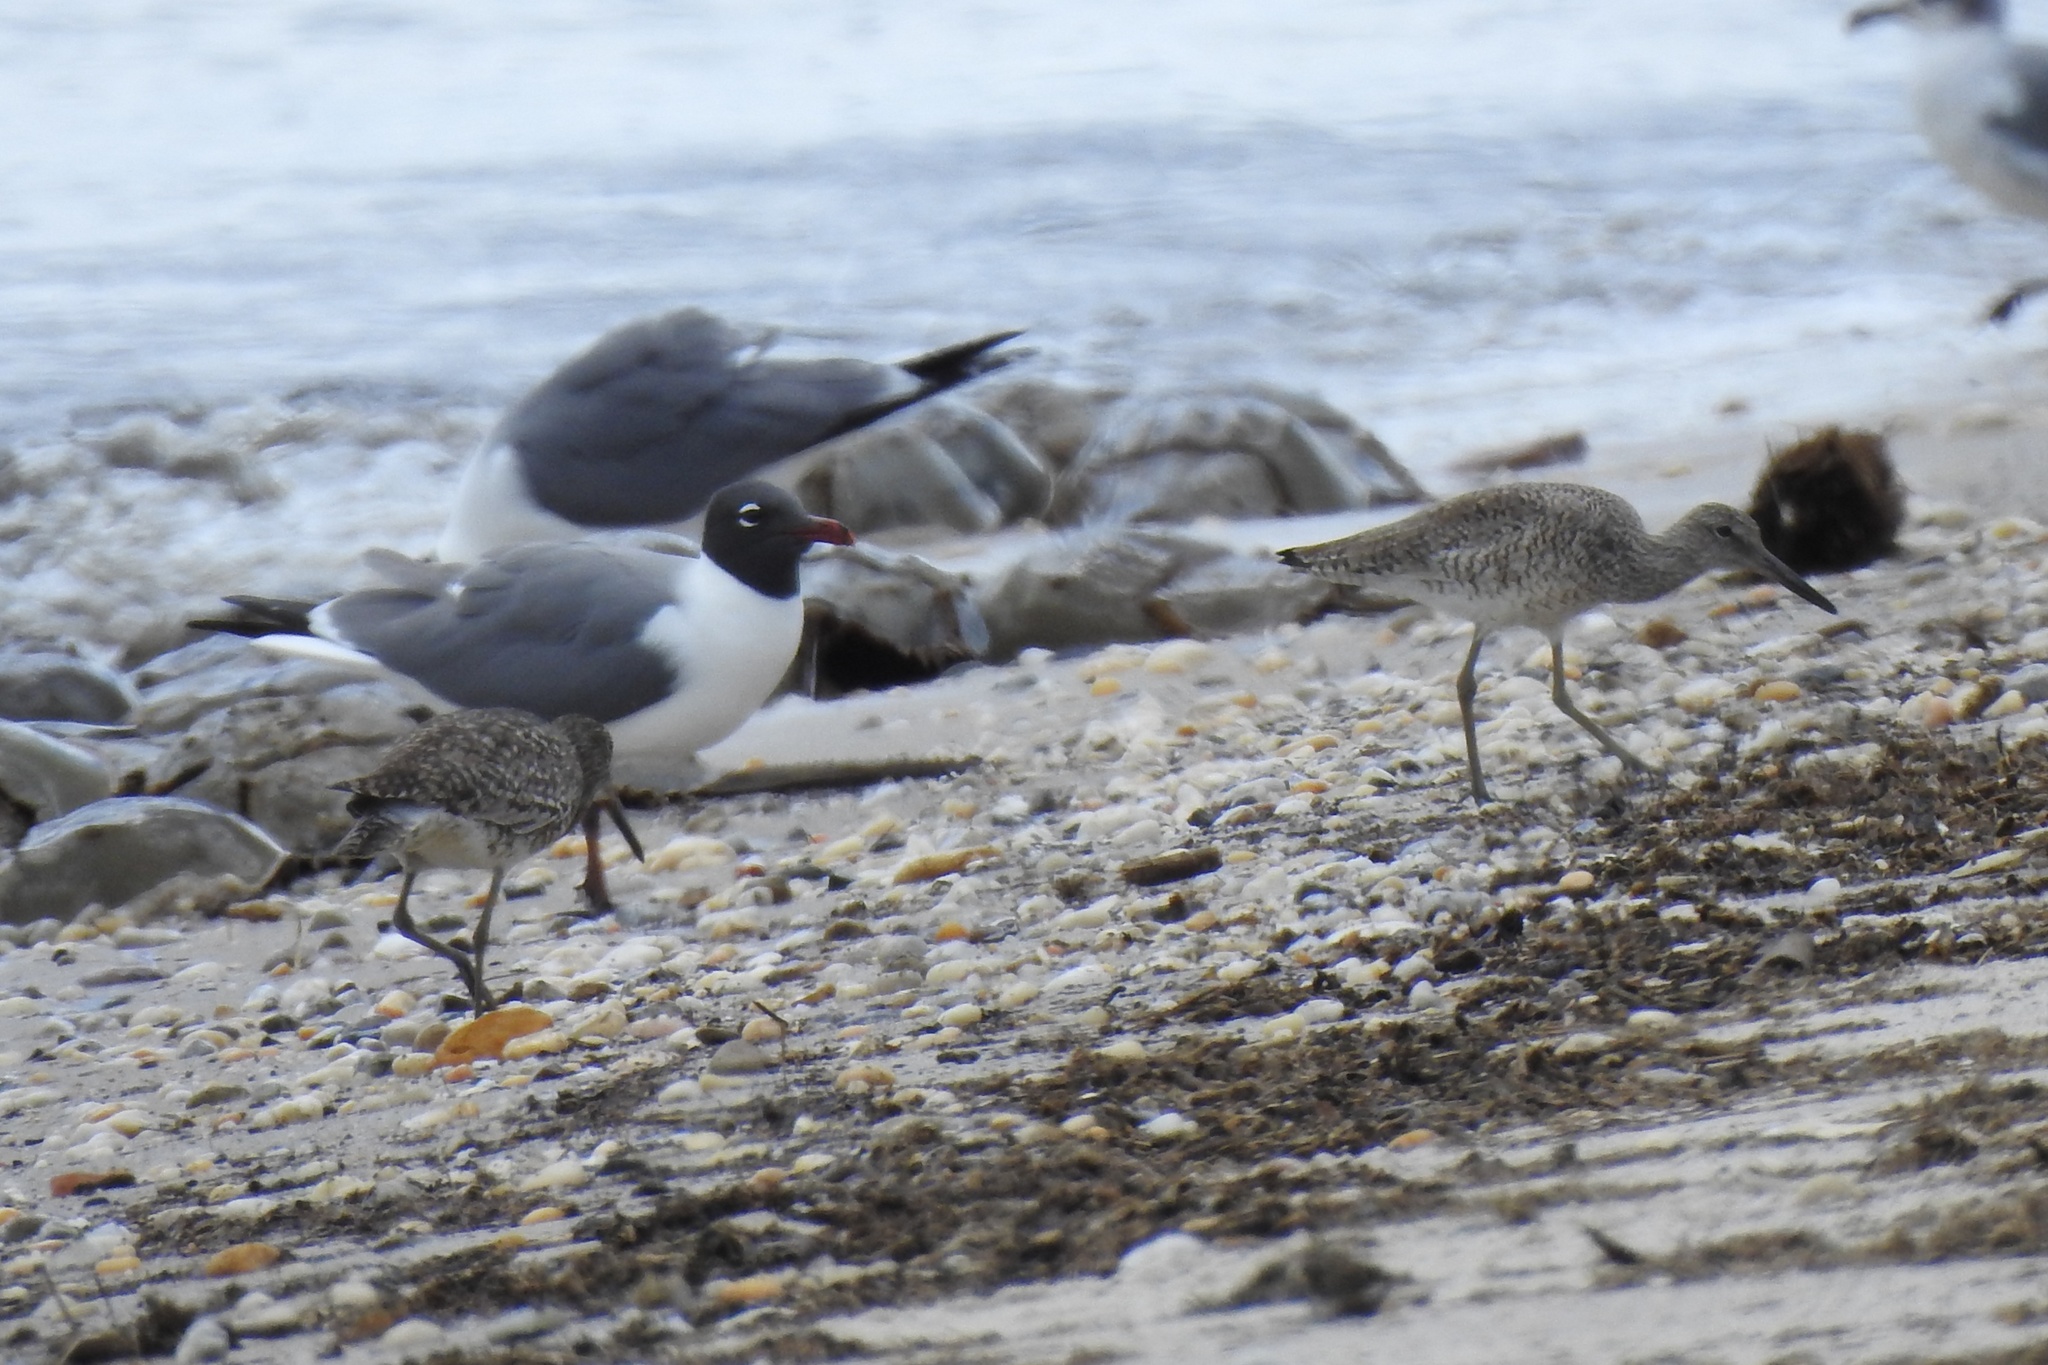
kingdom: Animalia
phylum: Chordata
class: Aves
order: Charadriiformes
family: Laridae
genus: Leucophaeus
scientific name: Leucophaeus atricilla
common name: Laughing gull
